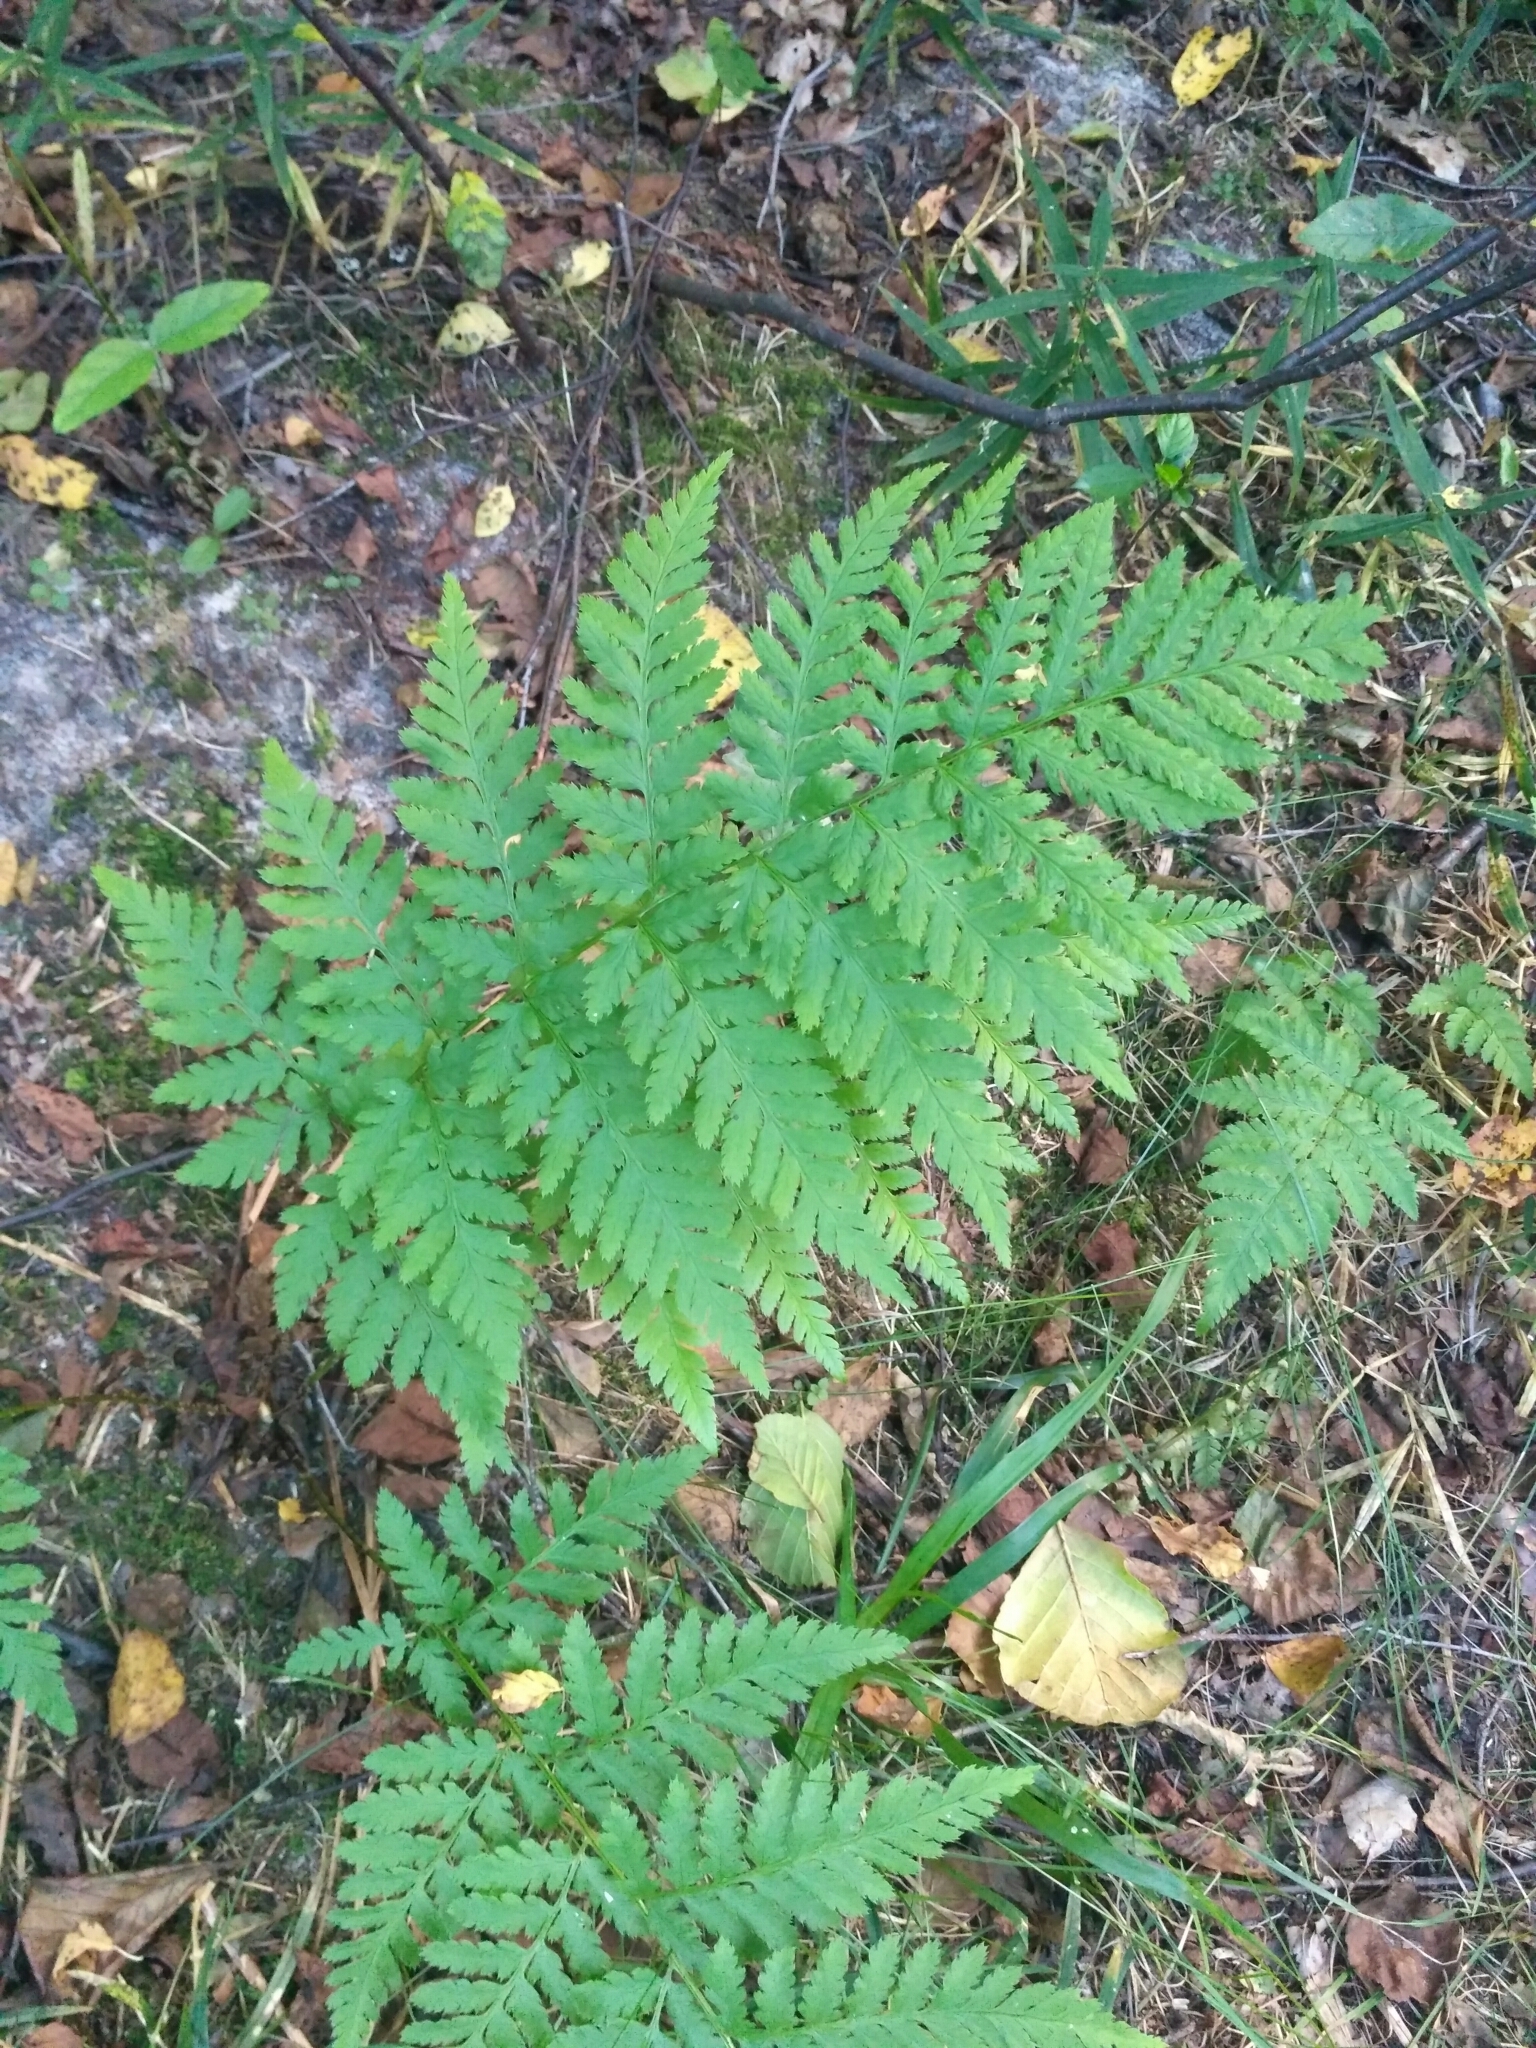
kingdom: Plantae
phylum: Tracheophyta
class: Polypodiopsida
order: Polypodiales
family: Dryopteridaceae
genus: Dryopteris
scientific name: Dryopteris carthusiana
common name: Narrow buckler-fern
